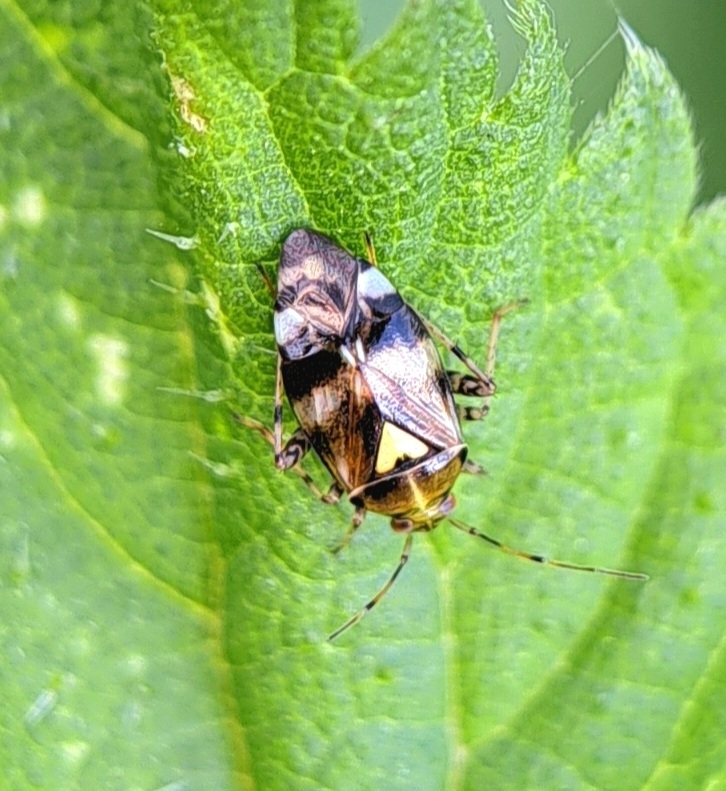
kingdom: Animalia
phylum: Arthropoda
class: Insecta
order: Hemiptera
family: Miridae
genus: Liocoris
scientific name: Liocoris tripustulatus
